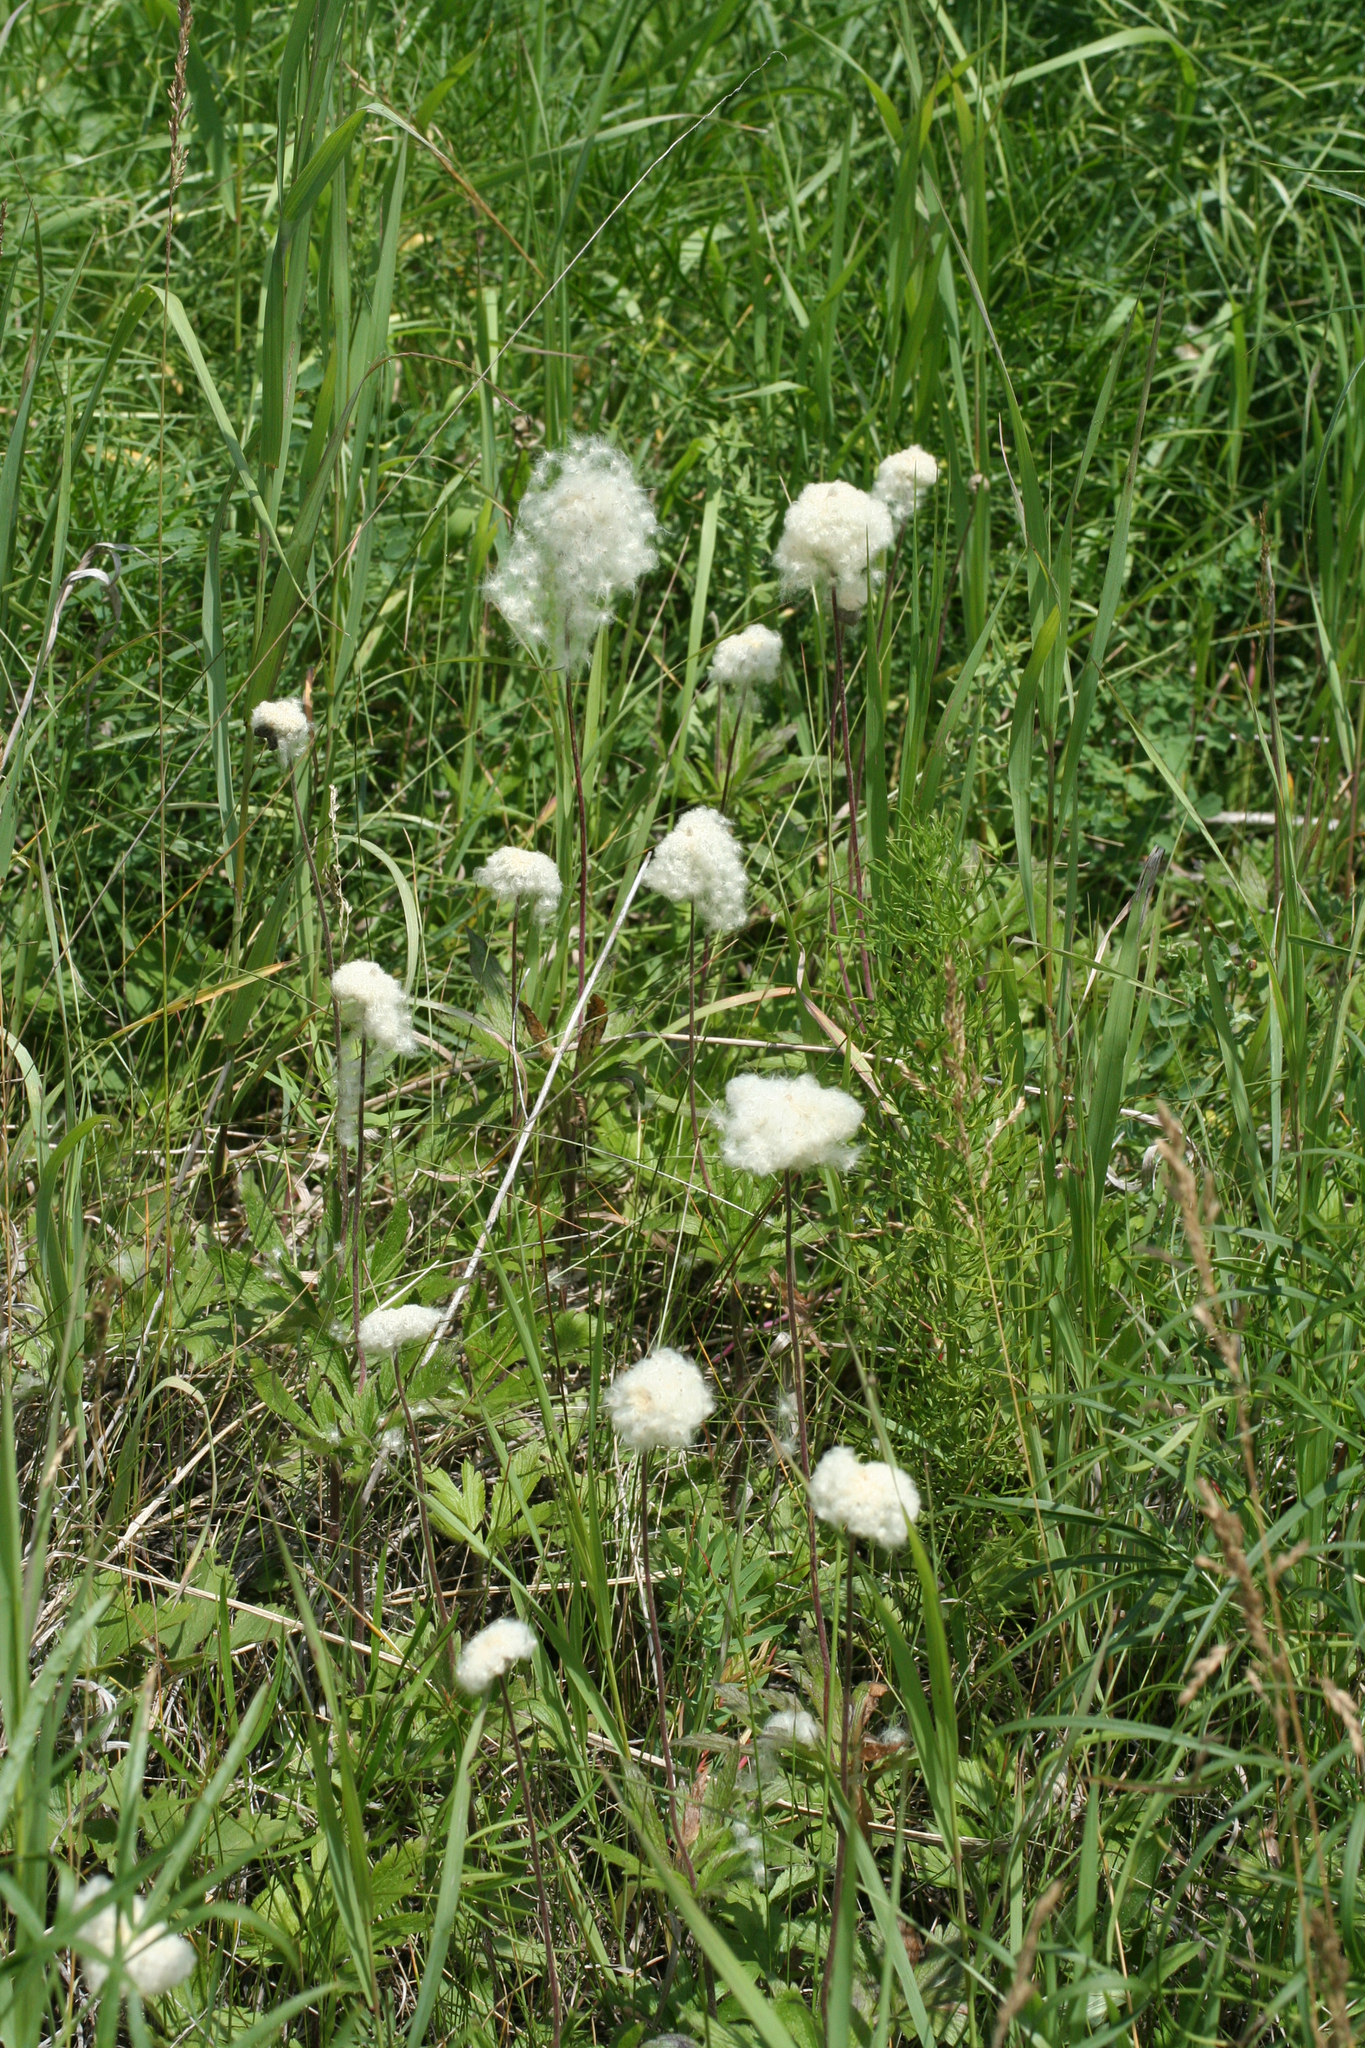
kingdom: Plantae
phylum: Tracheophyta
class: Magnoliopsida
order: Ranunculales
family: Ranunculaceae
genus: Anemone
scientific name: Anemone sylvestris
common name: Snowdrop anemone
